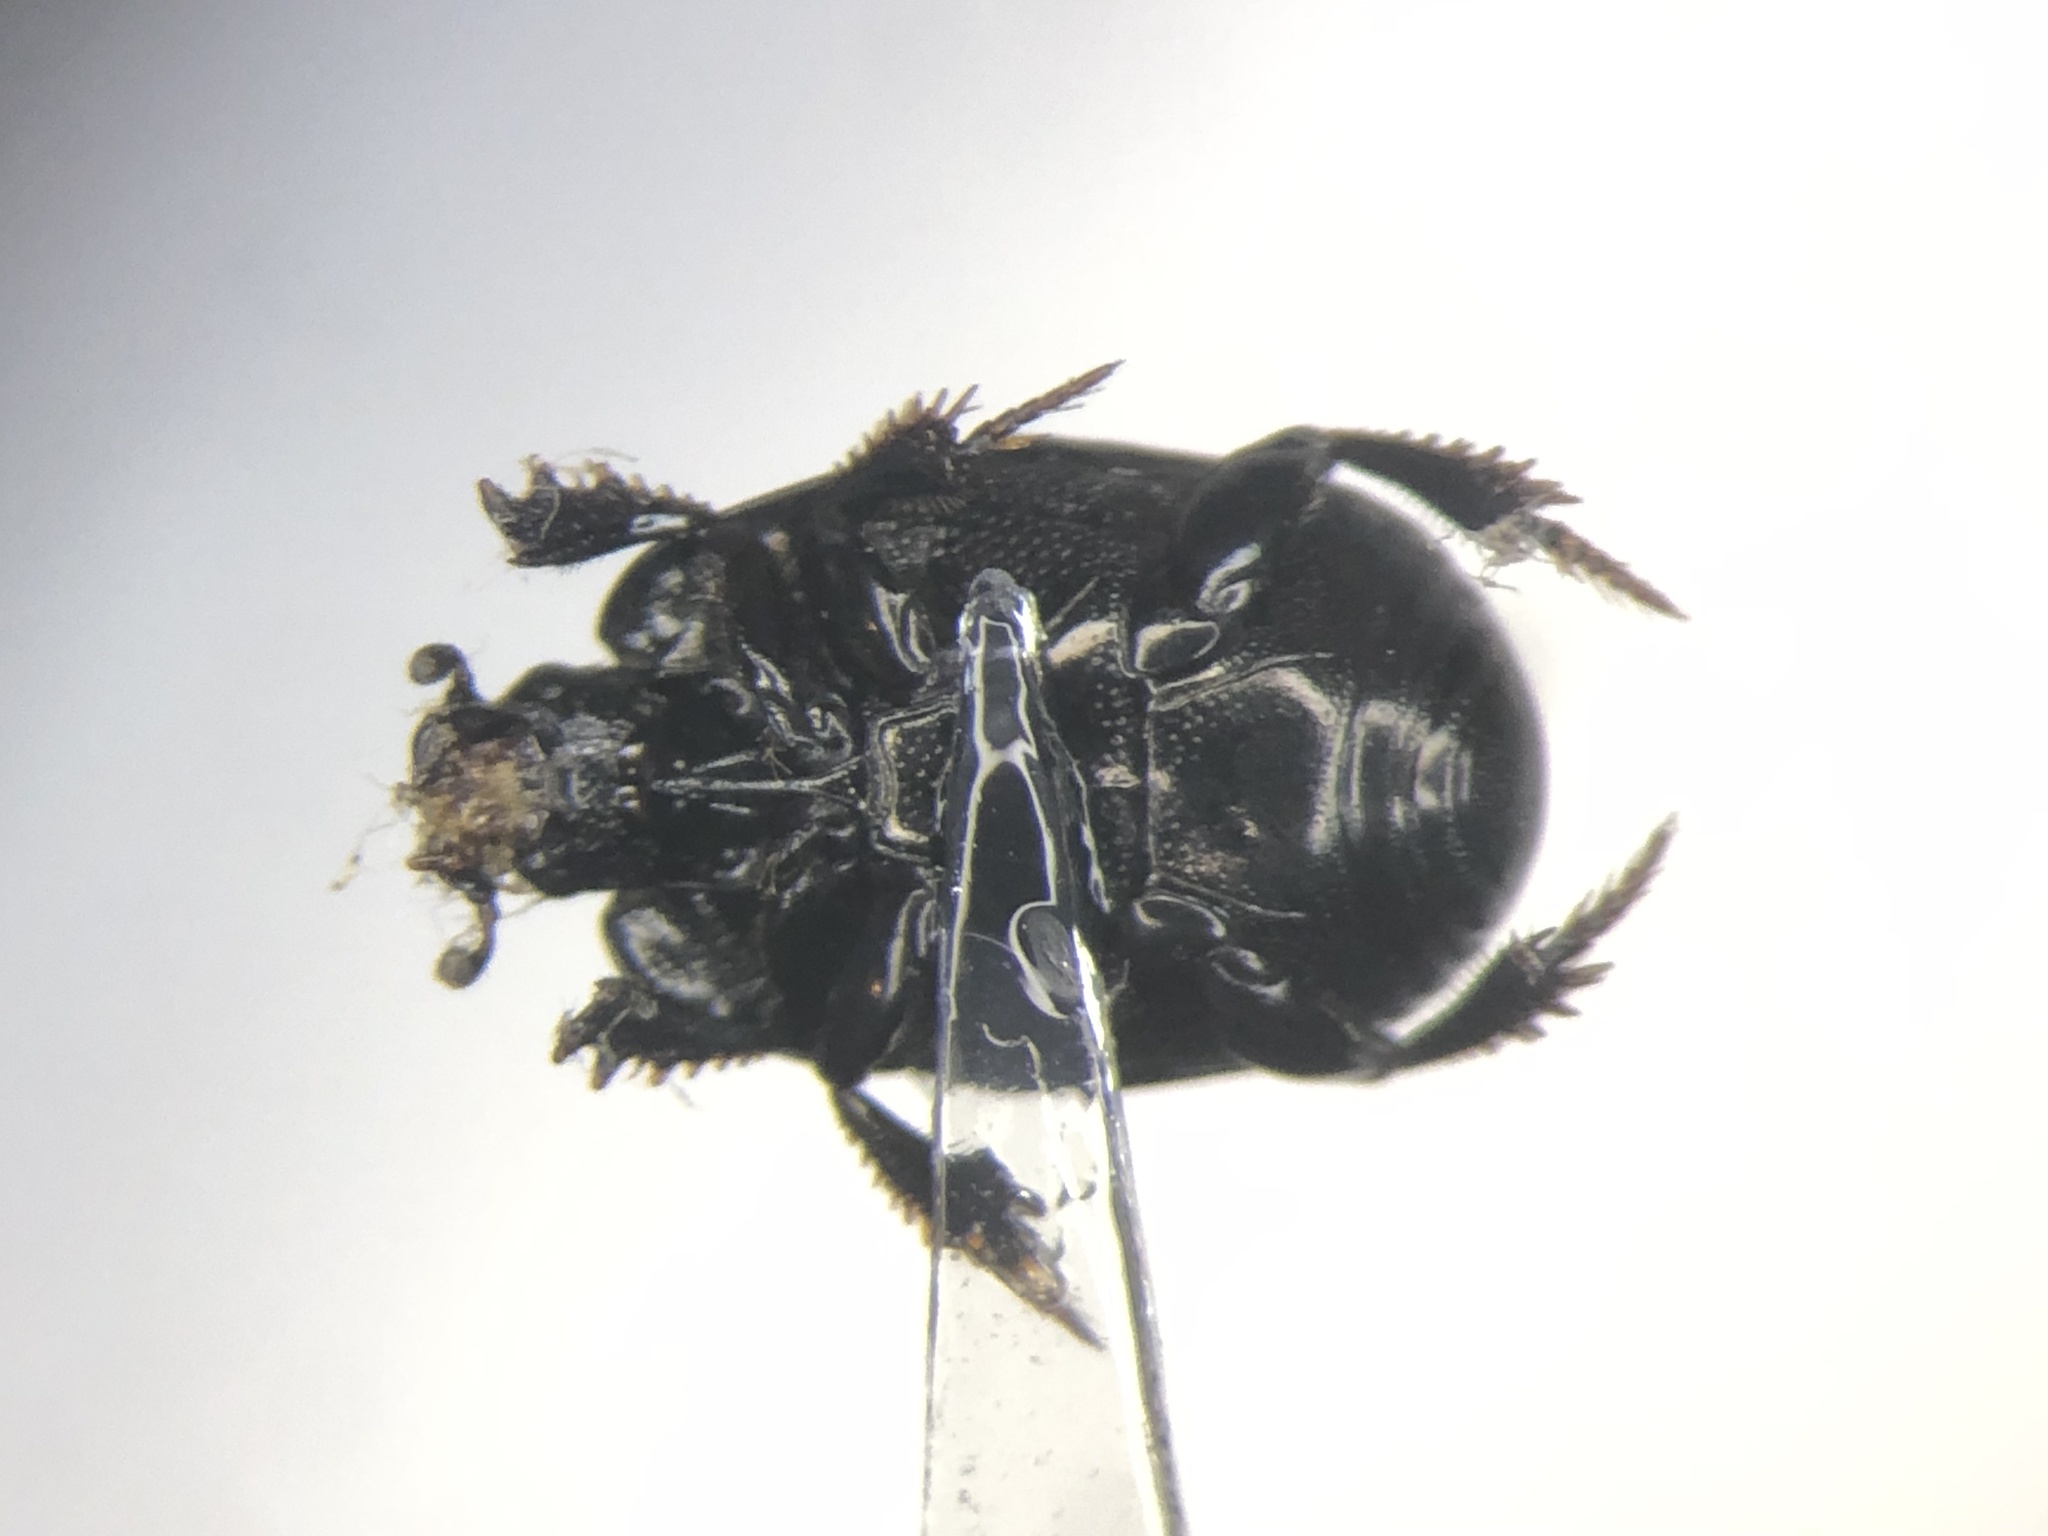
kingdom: Animalia
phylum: Arthropoda
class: Insecta
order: Coleoptera
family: Histeridae
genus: Hypocaccus
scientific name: Hypocaccus dimidiatipennis
